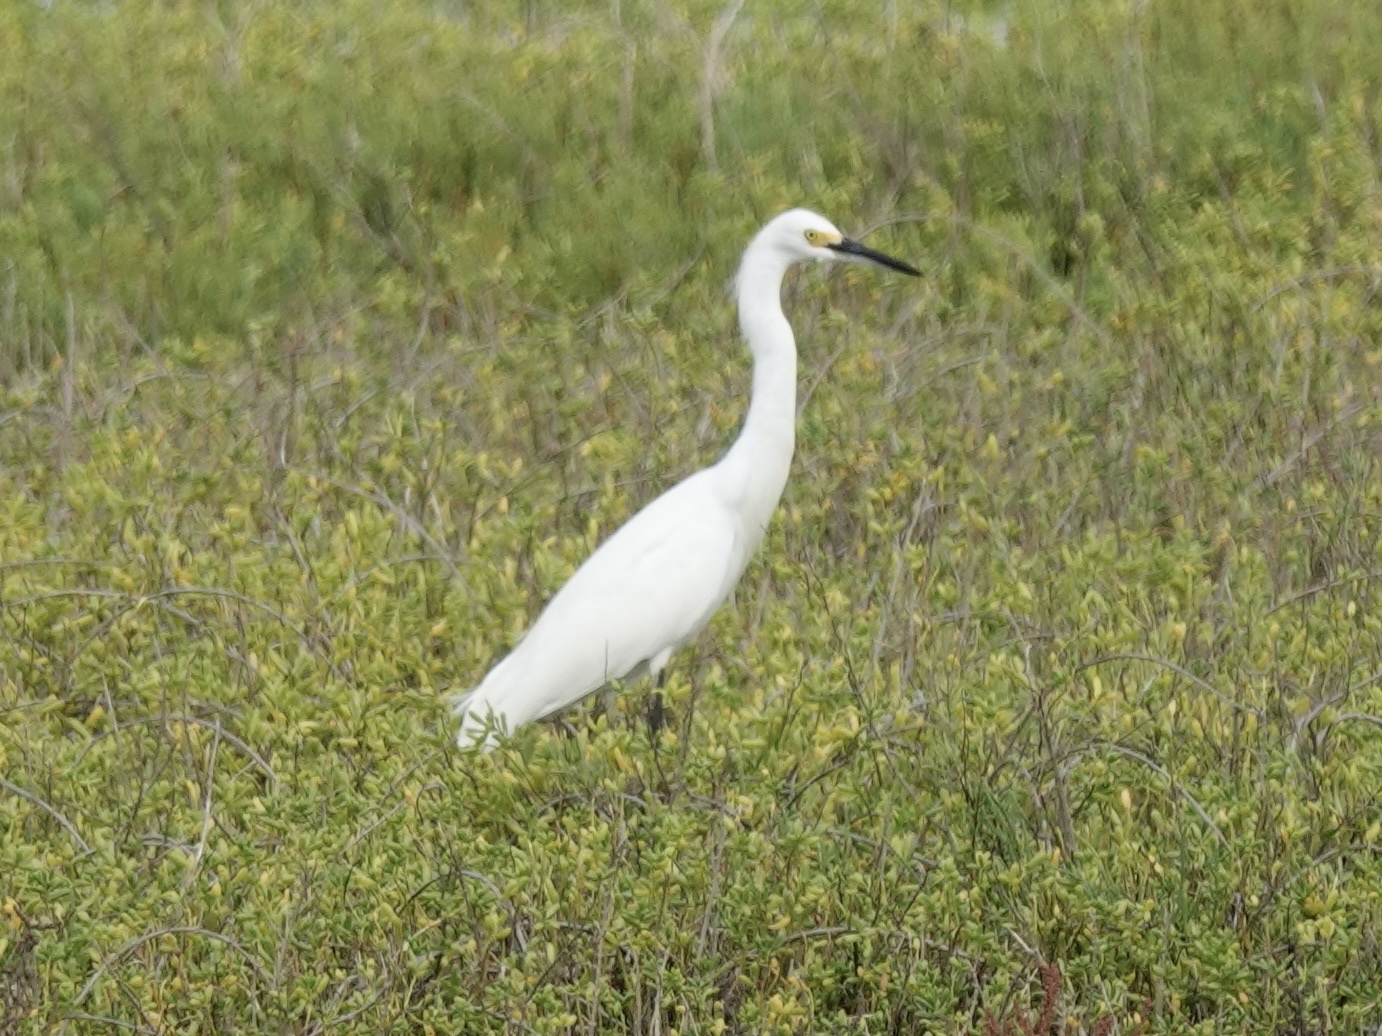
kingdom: Animalia
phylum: Chordata
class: Aves
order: Pelecaniformes
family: Ardeidae
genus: Egretta
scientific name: Egretta thula
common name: Snowy egret
